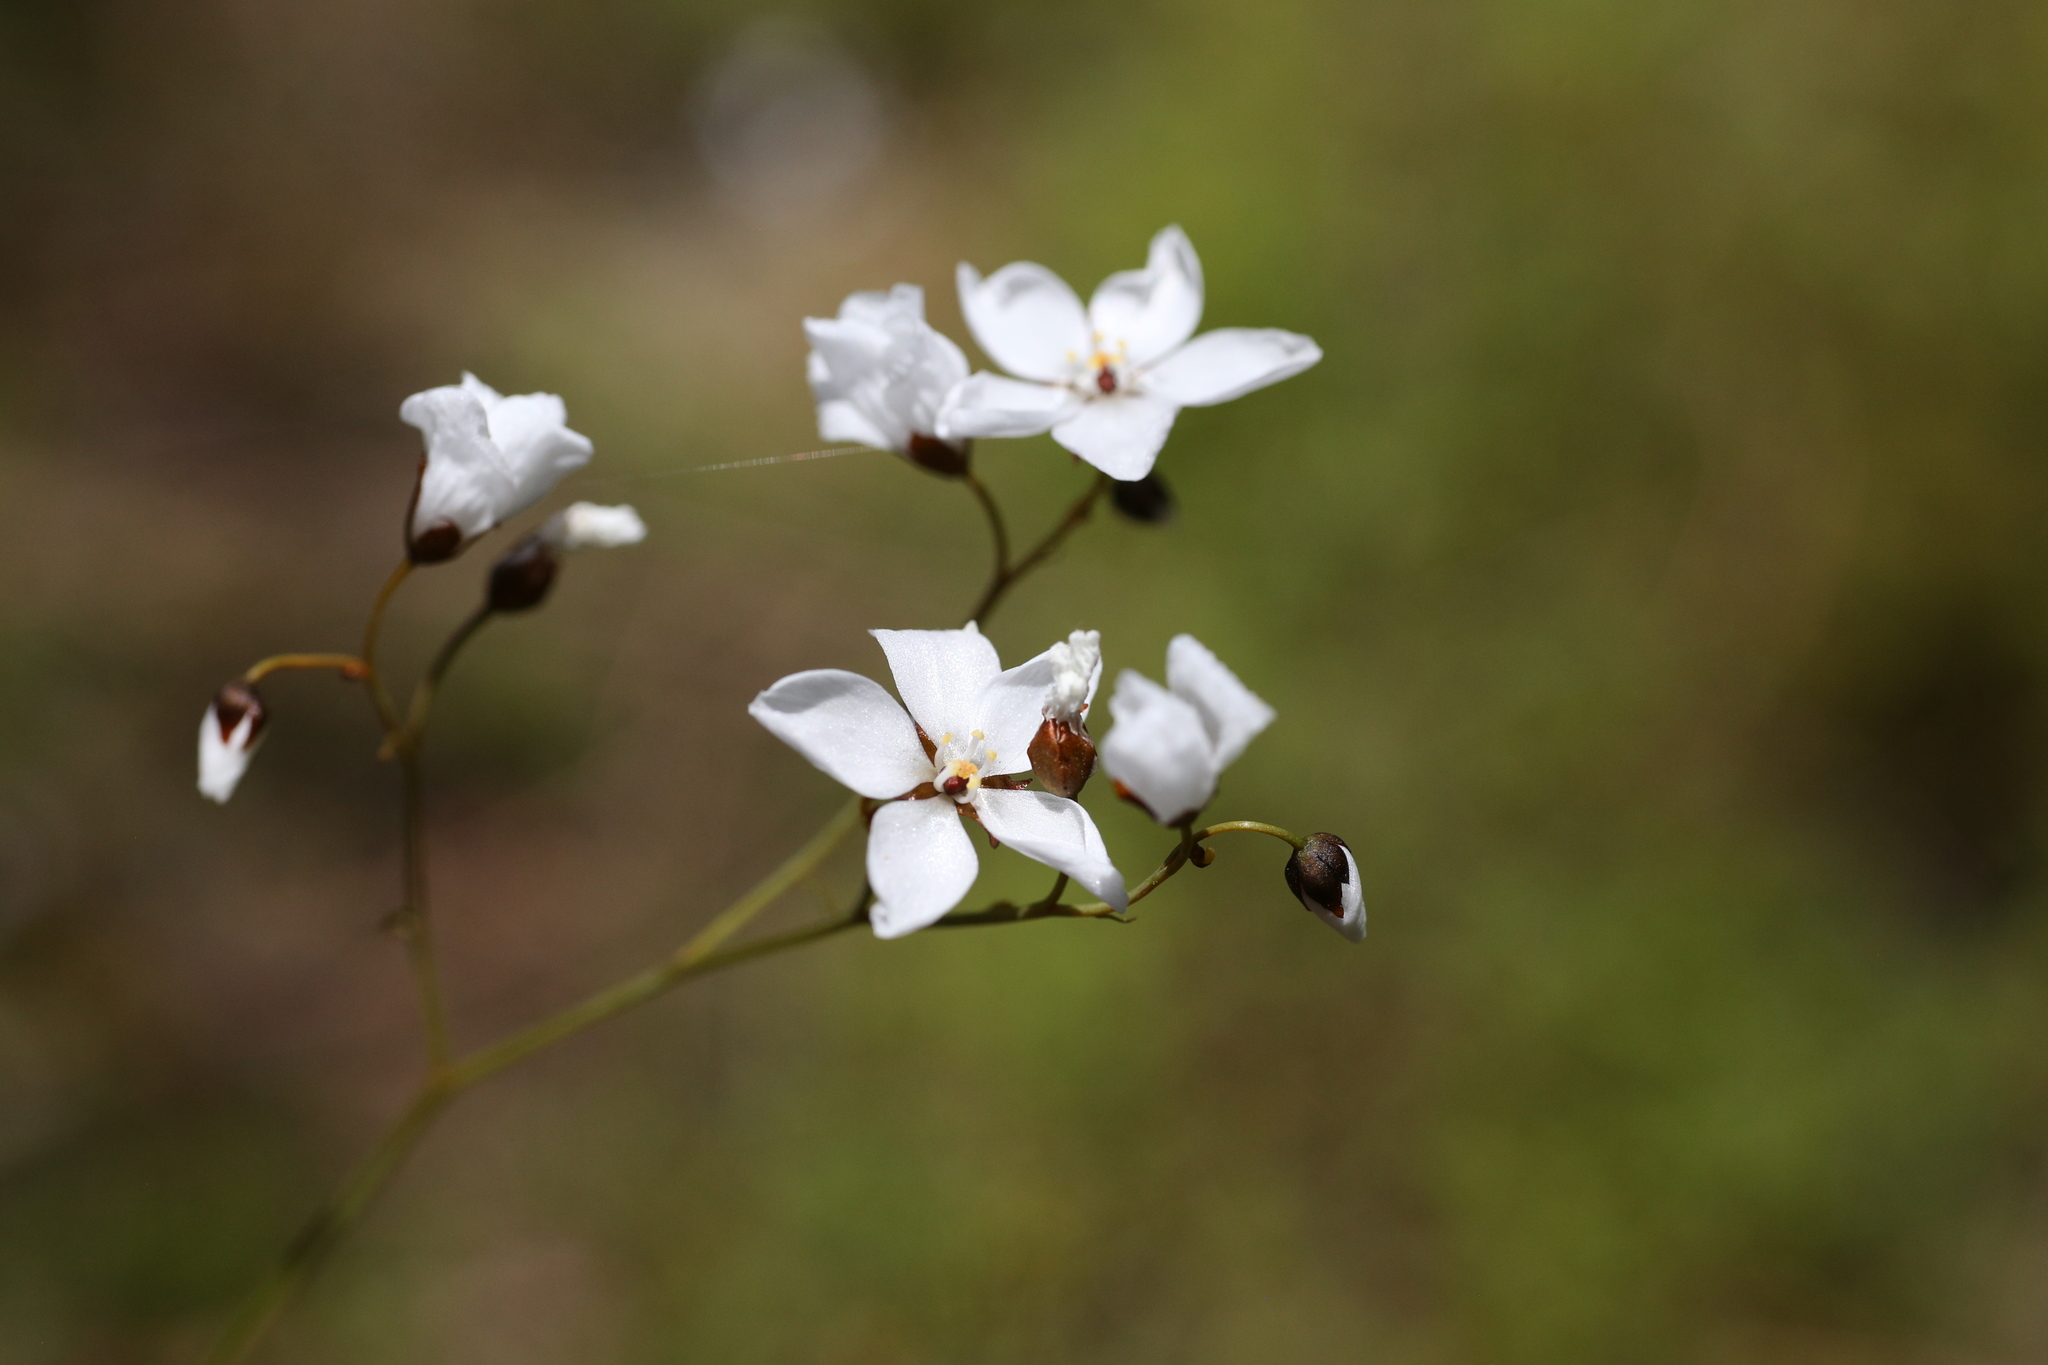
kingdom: Plantae
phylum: Tracheophyta
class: Magnoliopsida
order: Caryophyllales
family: Droseraceae
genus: Drosera
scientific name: Drosera gigantea
